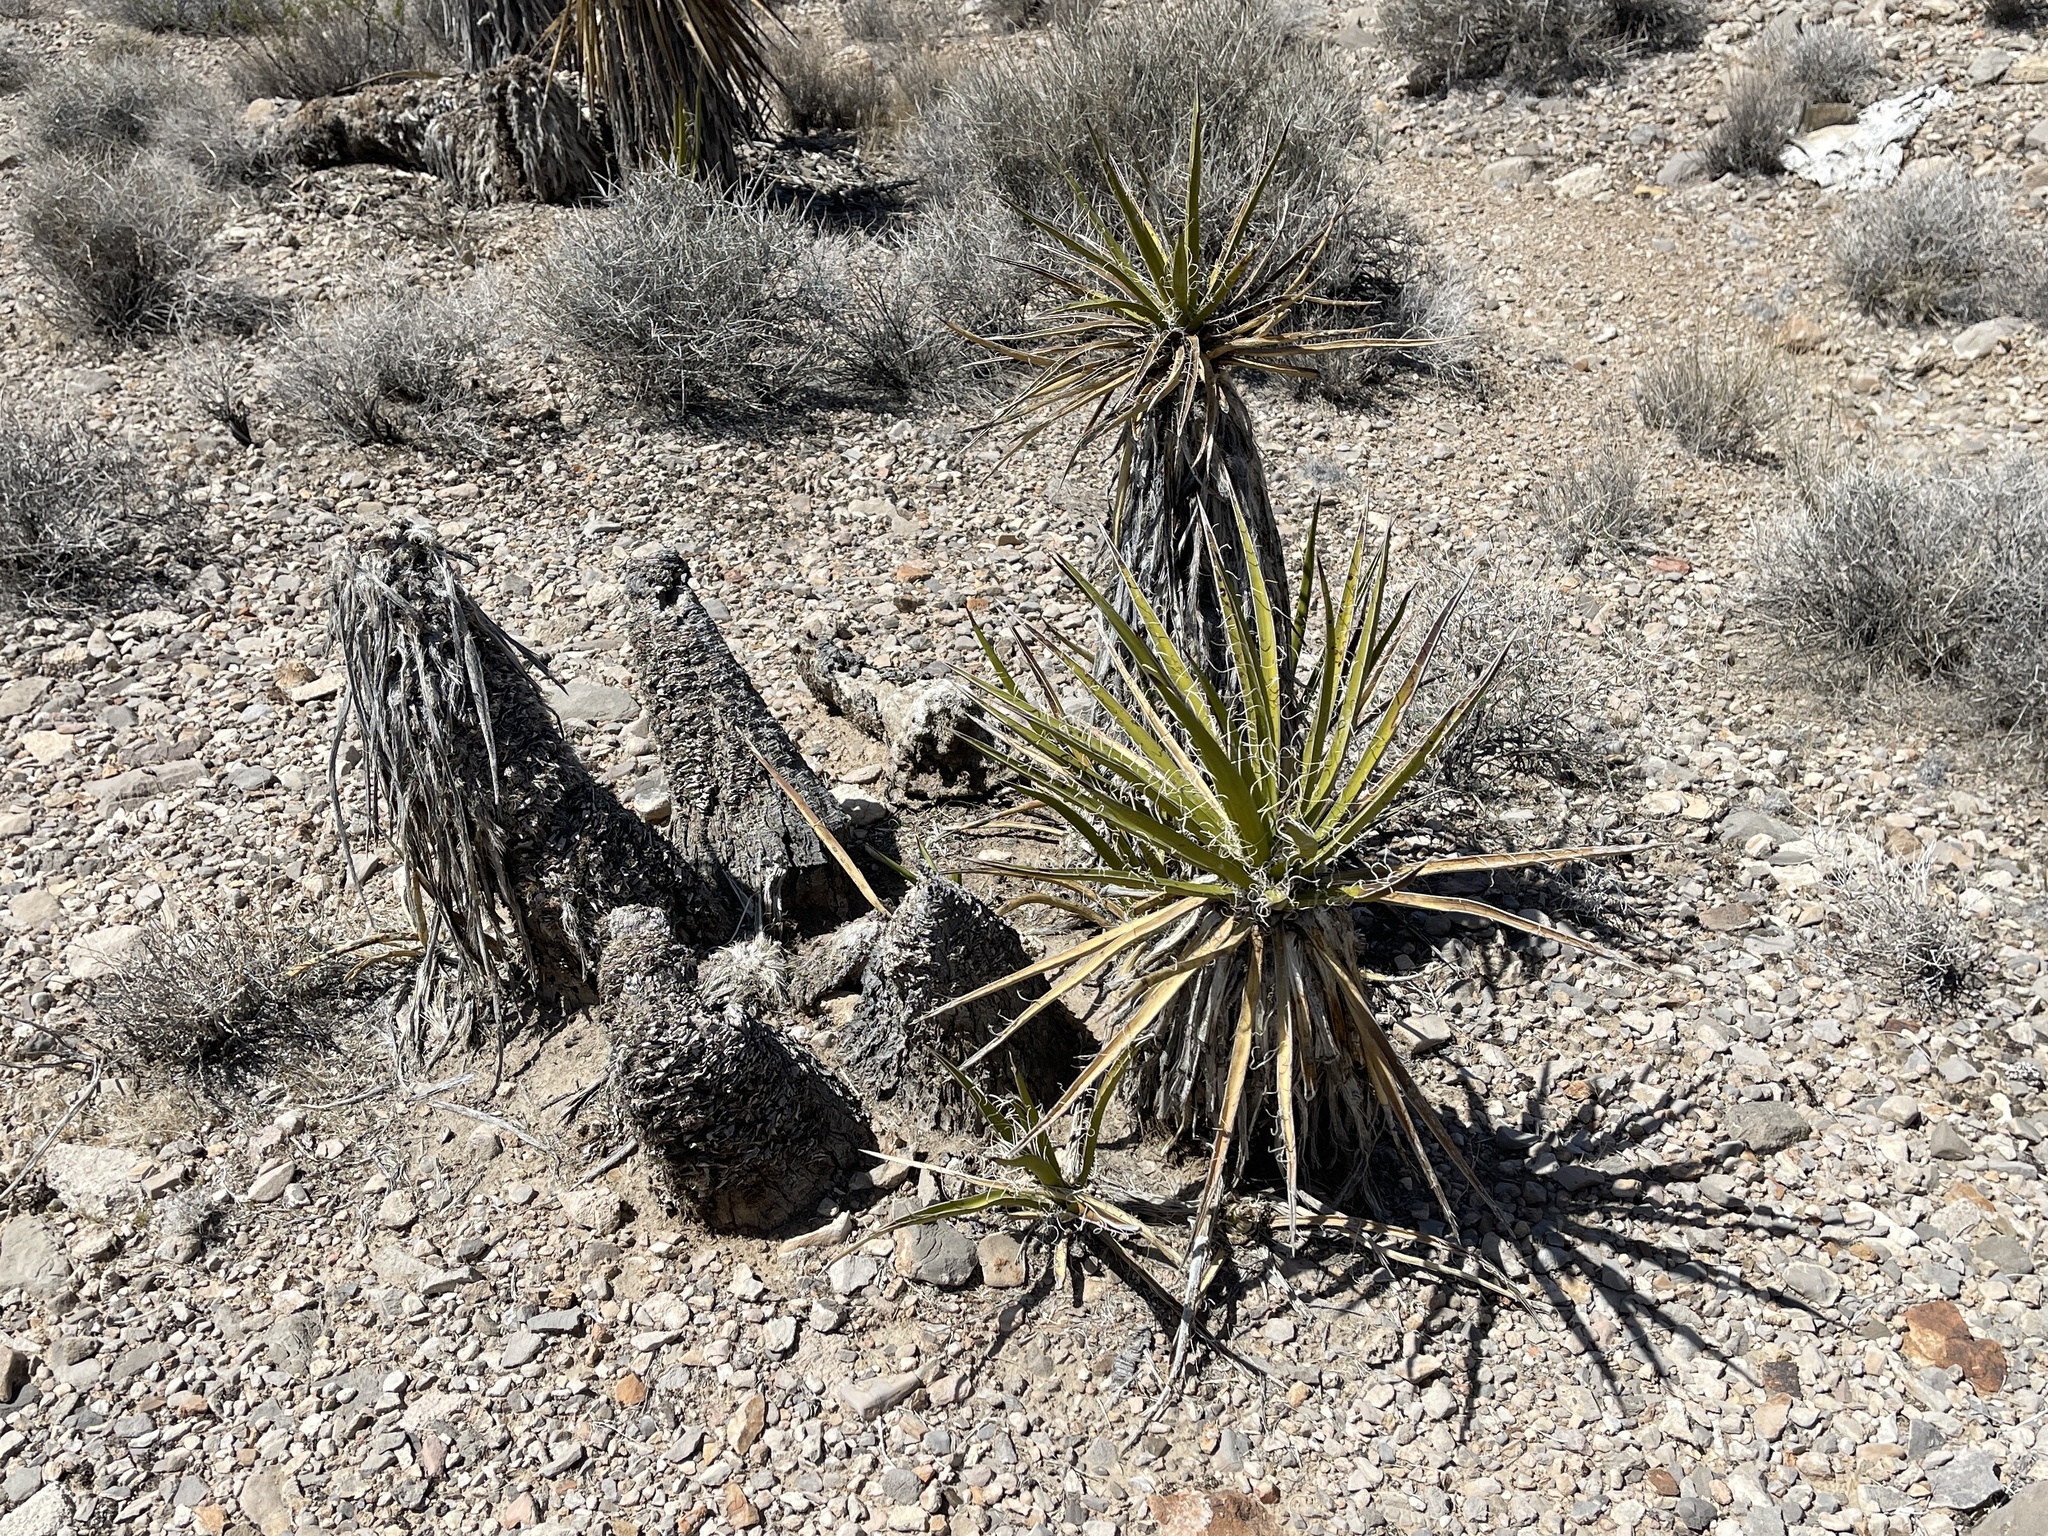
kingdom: Plantae
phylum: Tracheophyta
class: Liliopsida
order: Asparagales
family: Asparagaceae
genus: Yucca
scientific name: Yucca schidigera
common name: Mojave yucca
